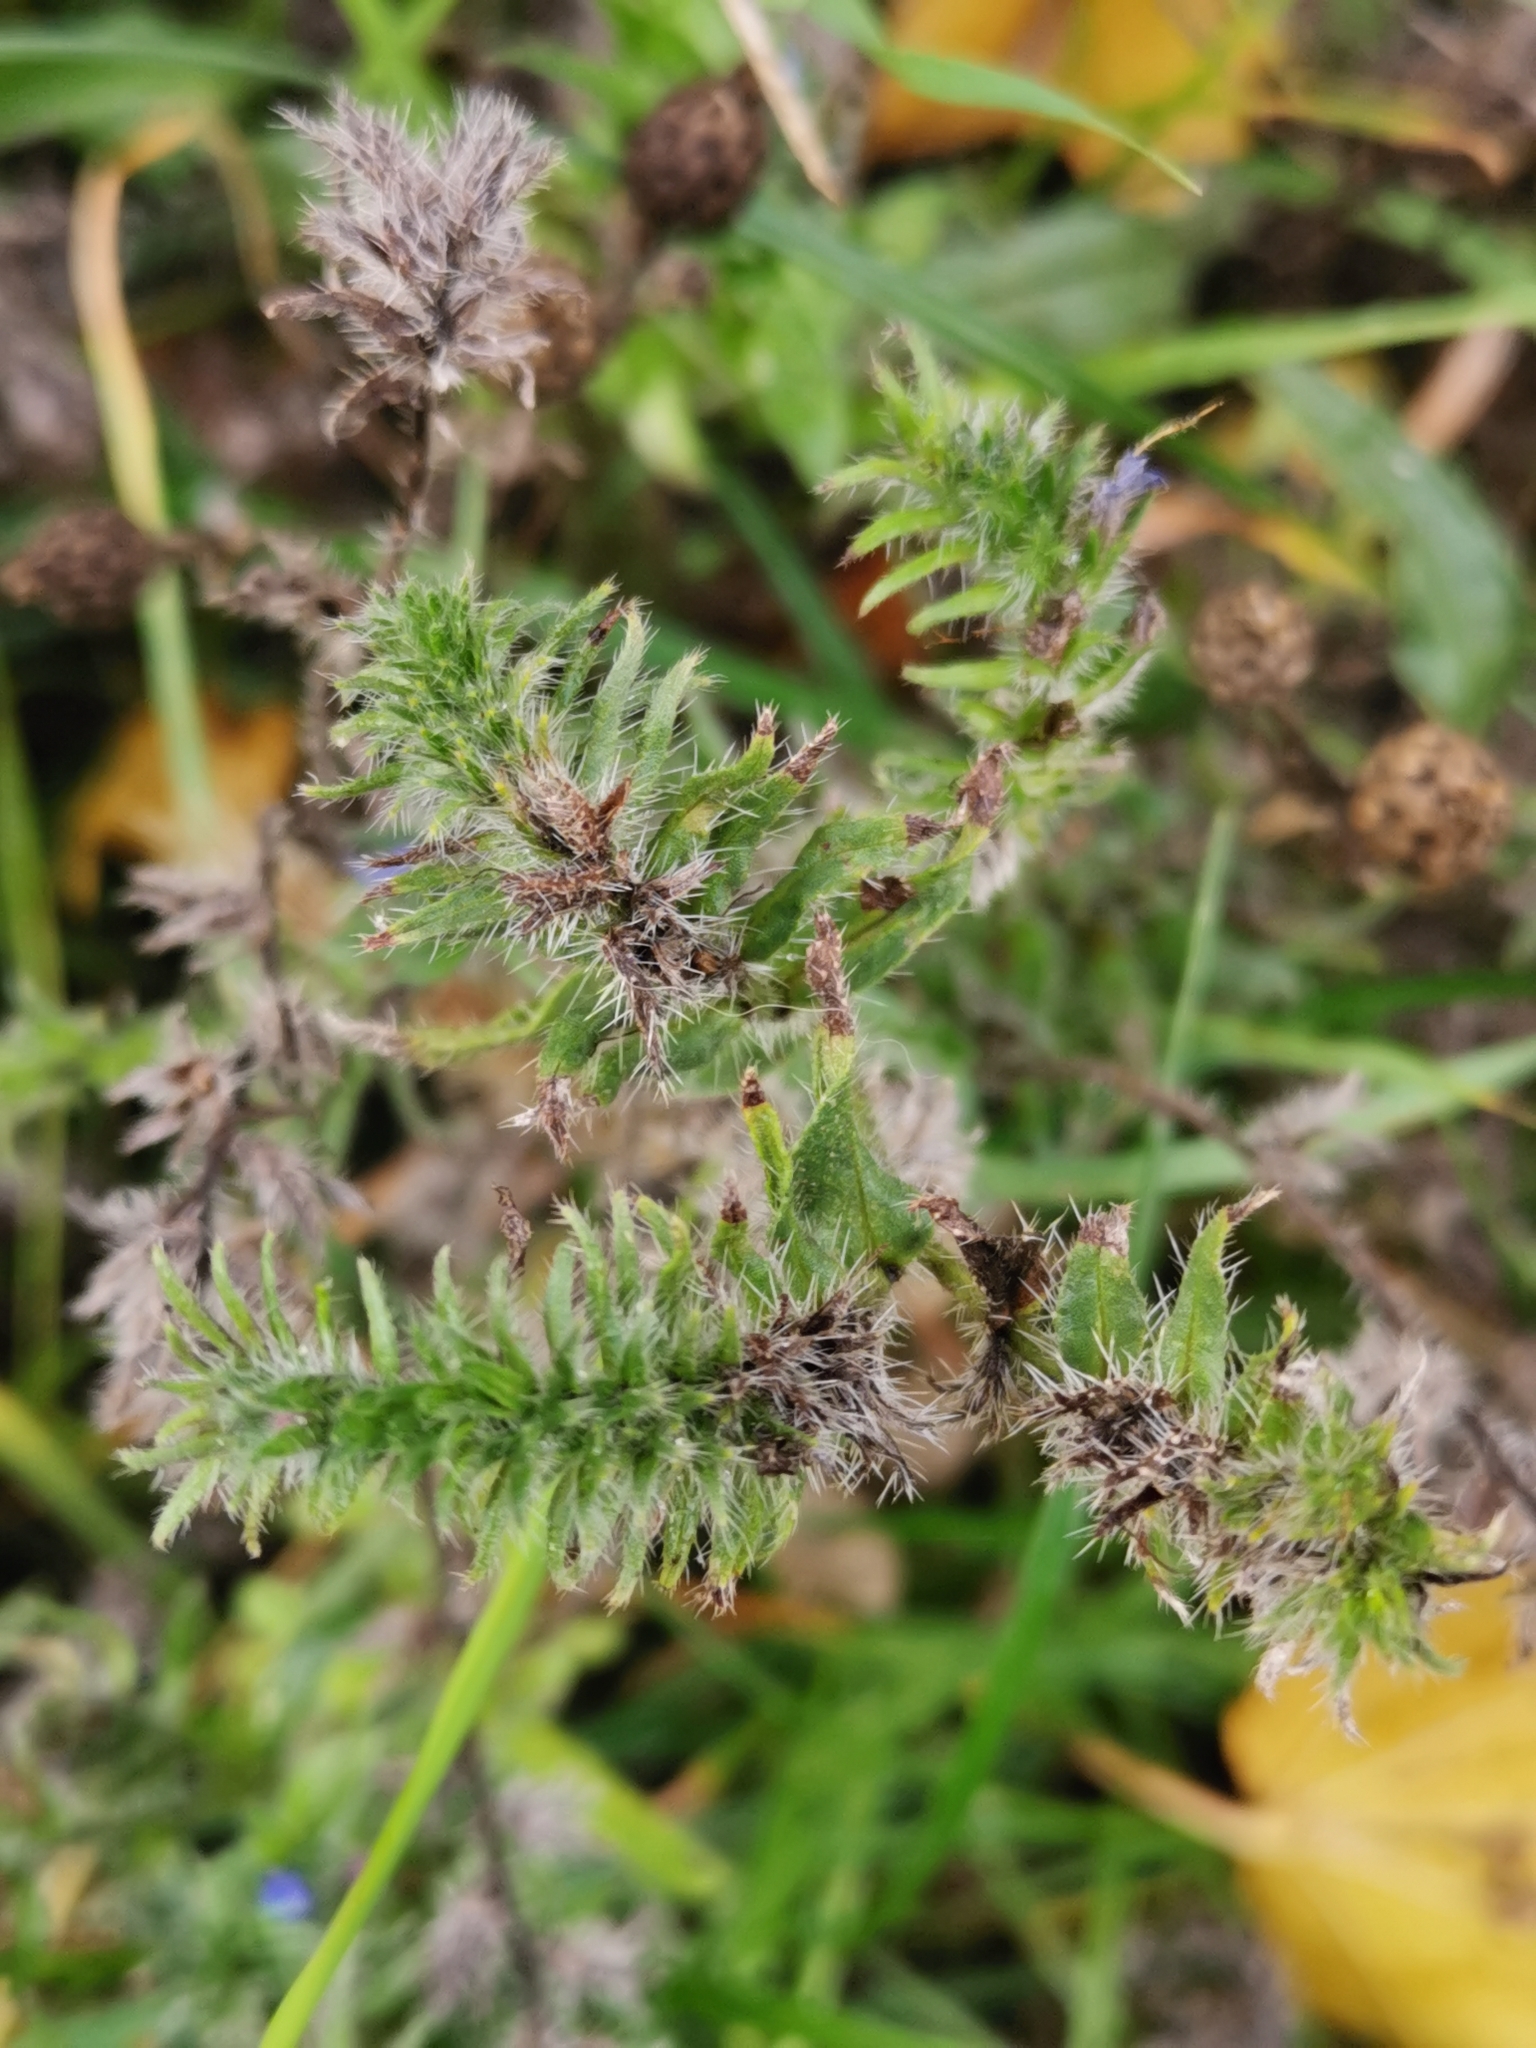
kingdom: Plantae
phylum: Tracheophyta
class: Magnoliopsida
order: Boraginales
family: Boraginaceae
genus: Echium
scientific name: Echium vulgare
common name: Common viper's bugloss
